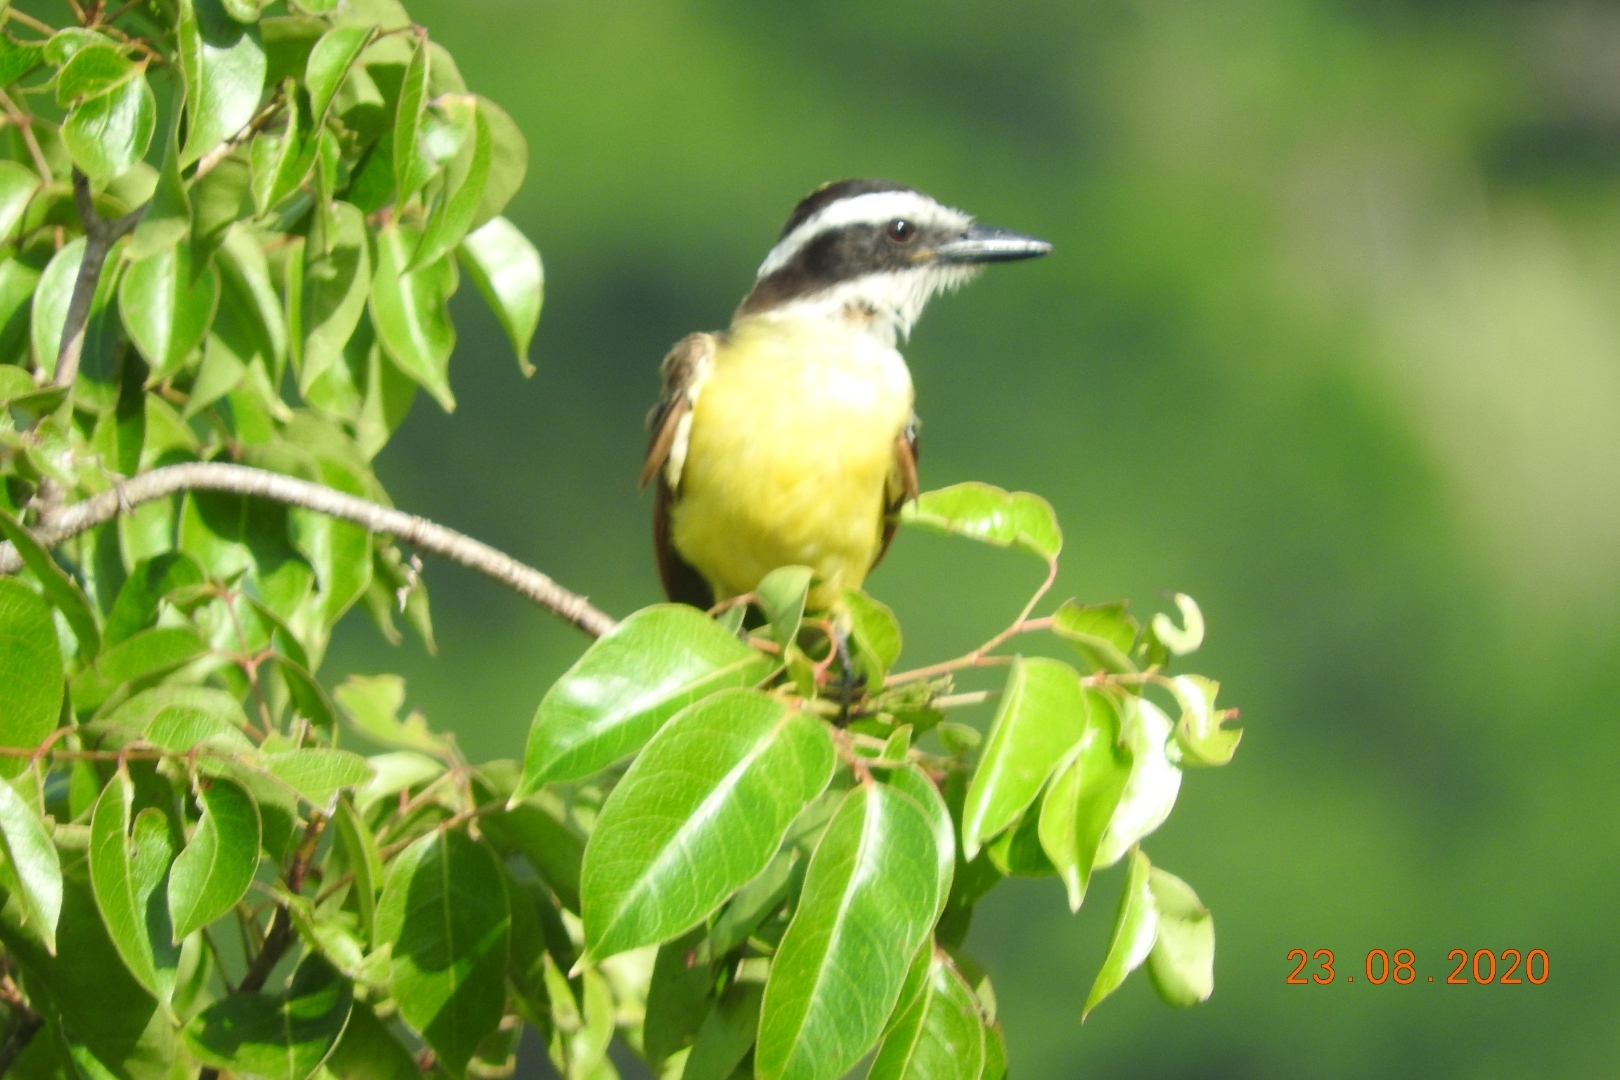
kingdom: Animalia
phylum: Chordata
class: Aves
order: Passeriformes
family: Tyrannidae
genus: Pitangus
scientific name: Pitangus sulphuratus
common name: Great kiskadee
